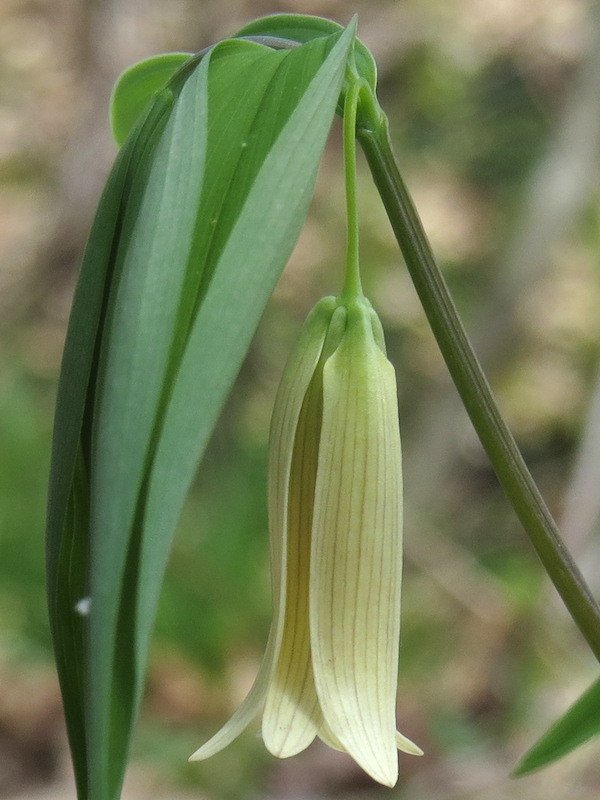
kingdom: Plantae
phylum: Tracheophyta
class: Liliopsida
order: Liliales
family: Colchicaceae
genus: Uvularia
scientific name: Uvularia sessilifolia
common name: Straw-lily
